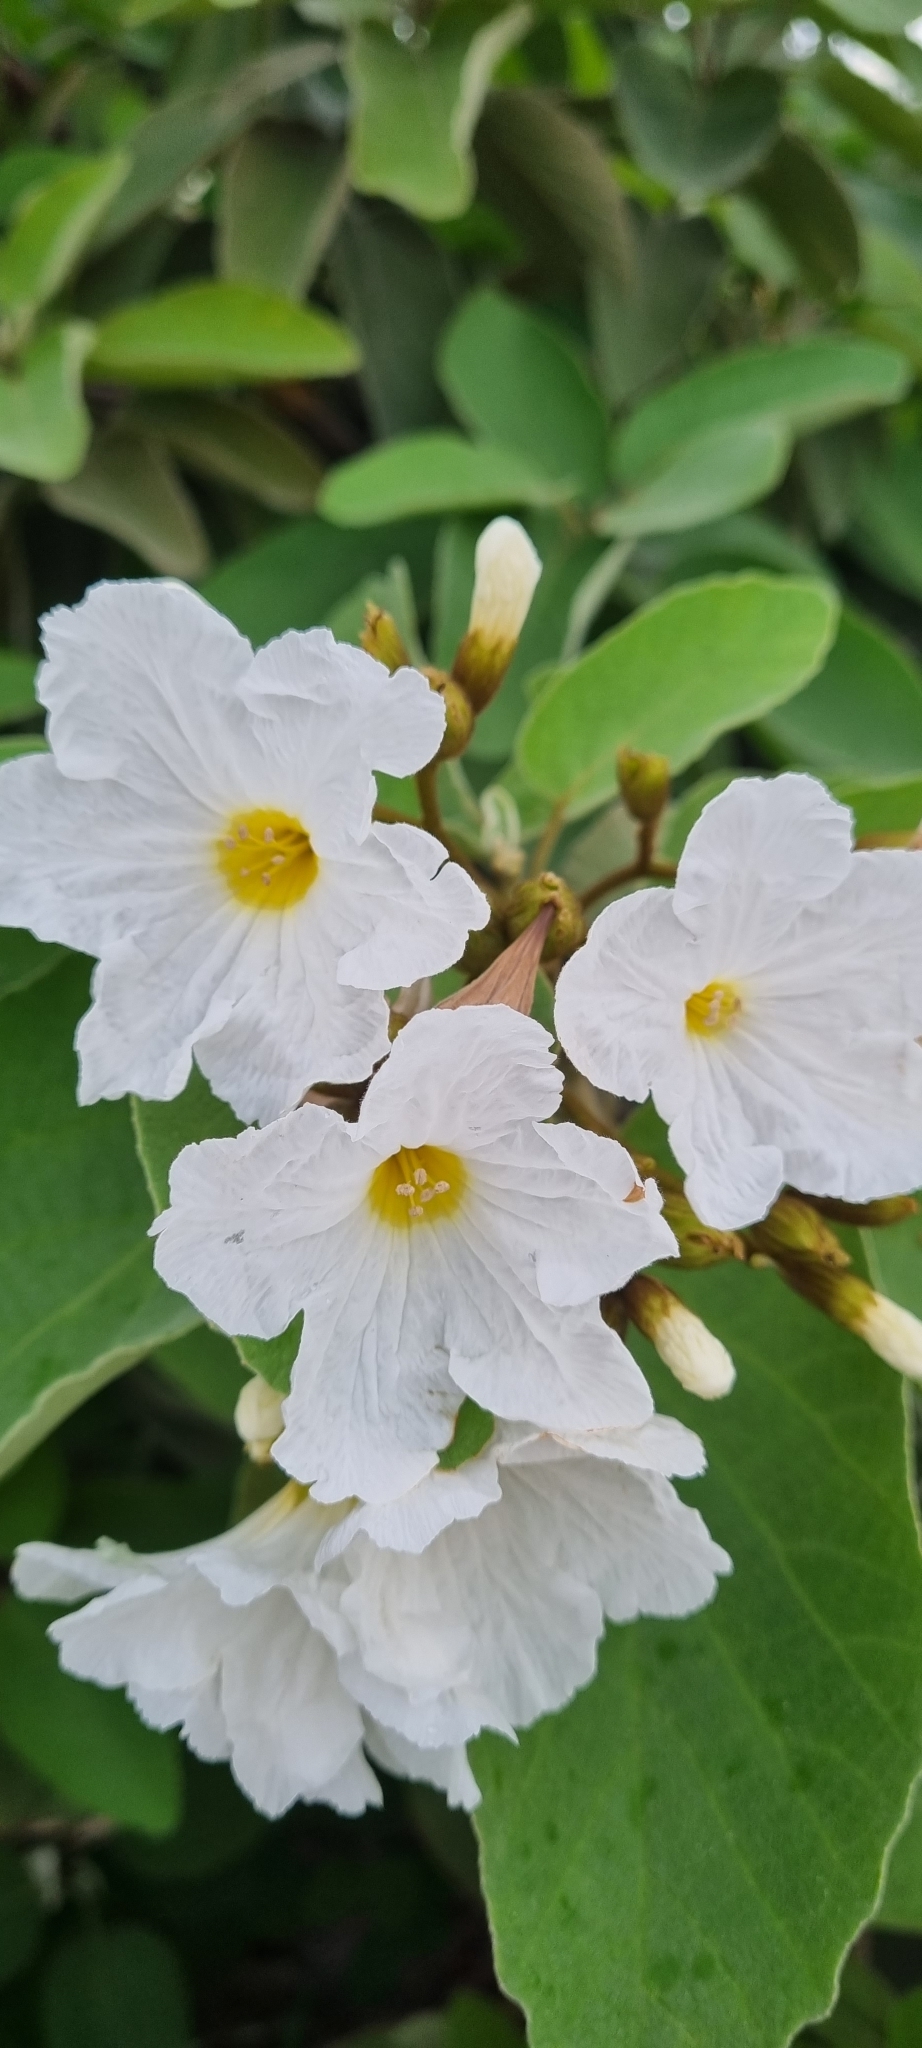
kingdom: Plantae
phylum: Tracheophyta
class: Magnoliopsida
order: Boraginales
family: Cordiaceae
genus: Cordia
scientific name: Cordia boissieri
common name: Mexican-olive
